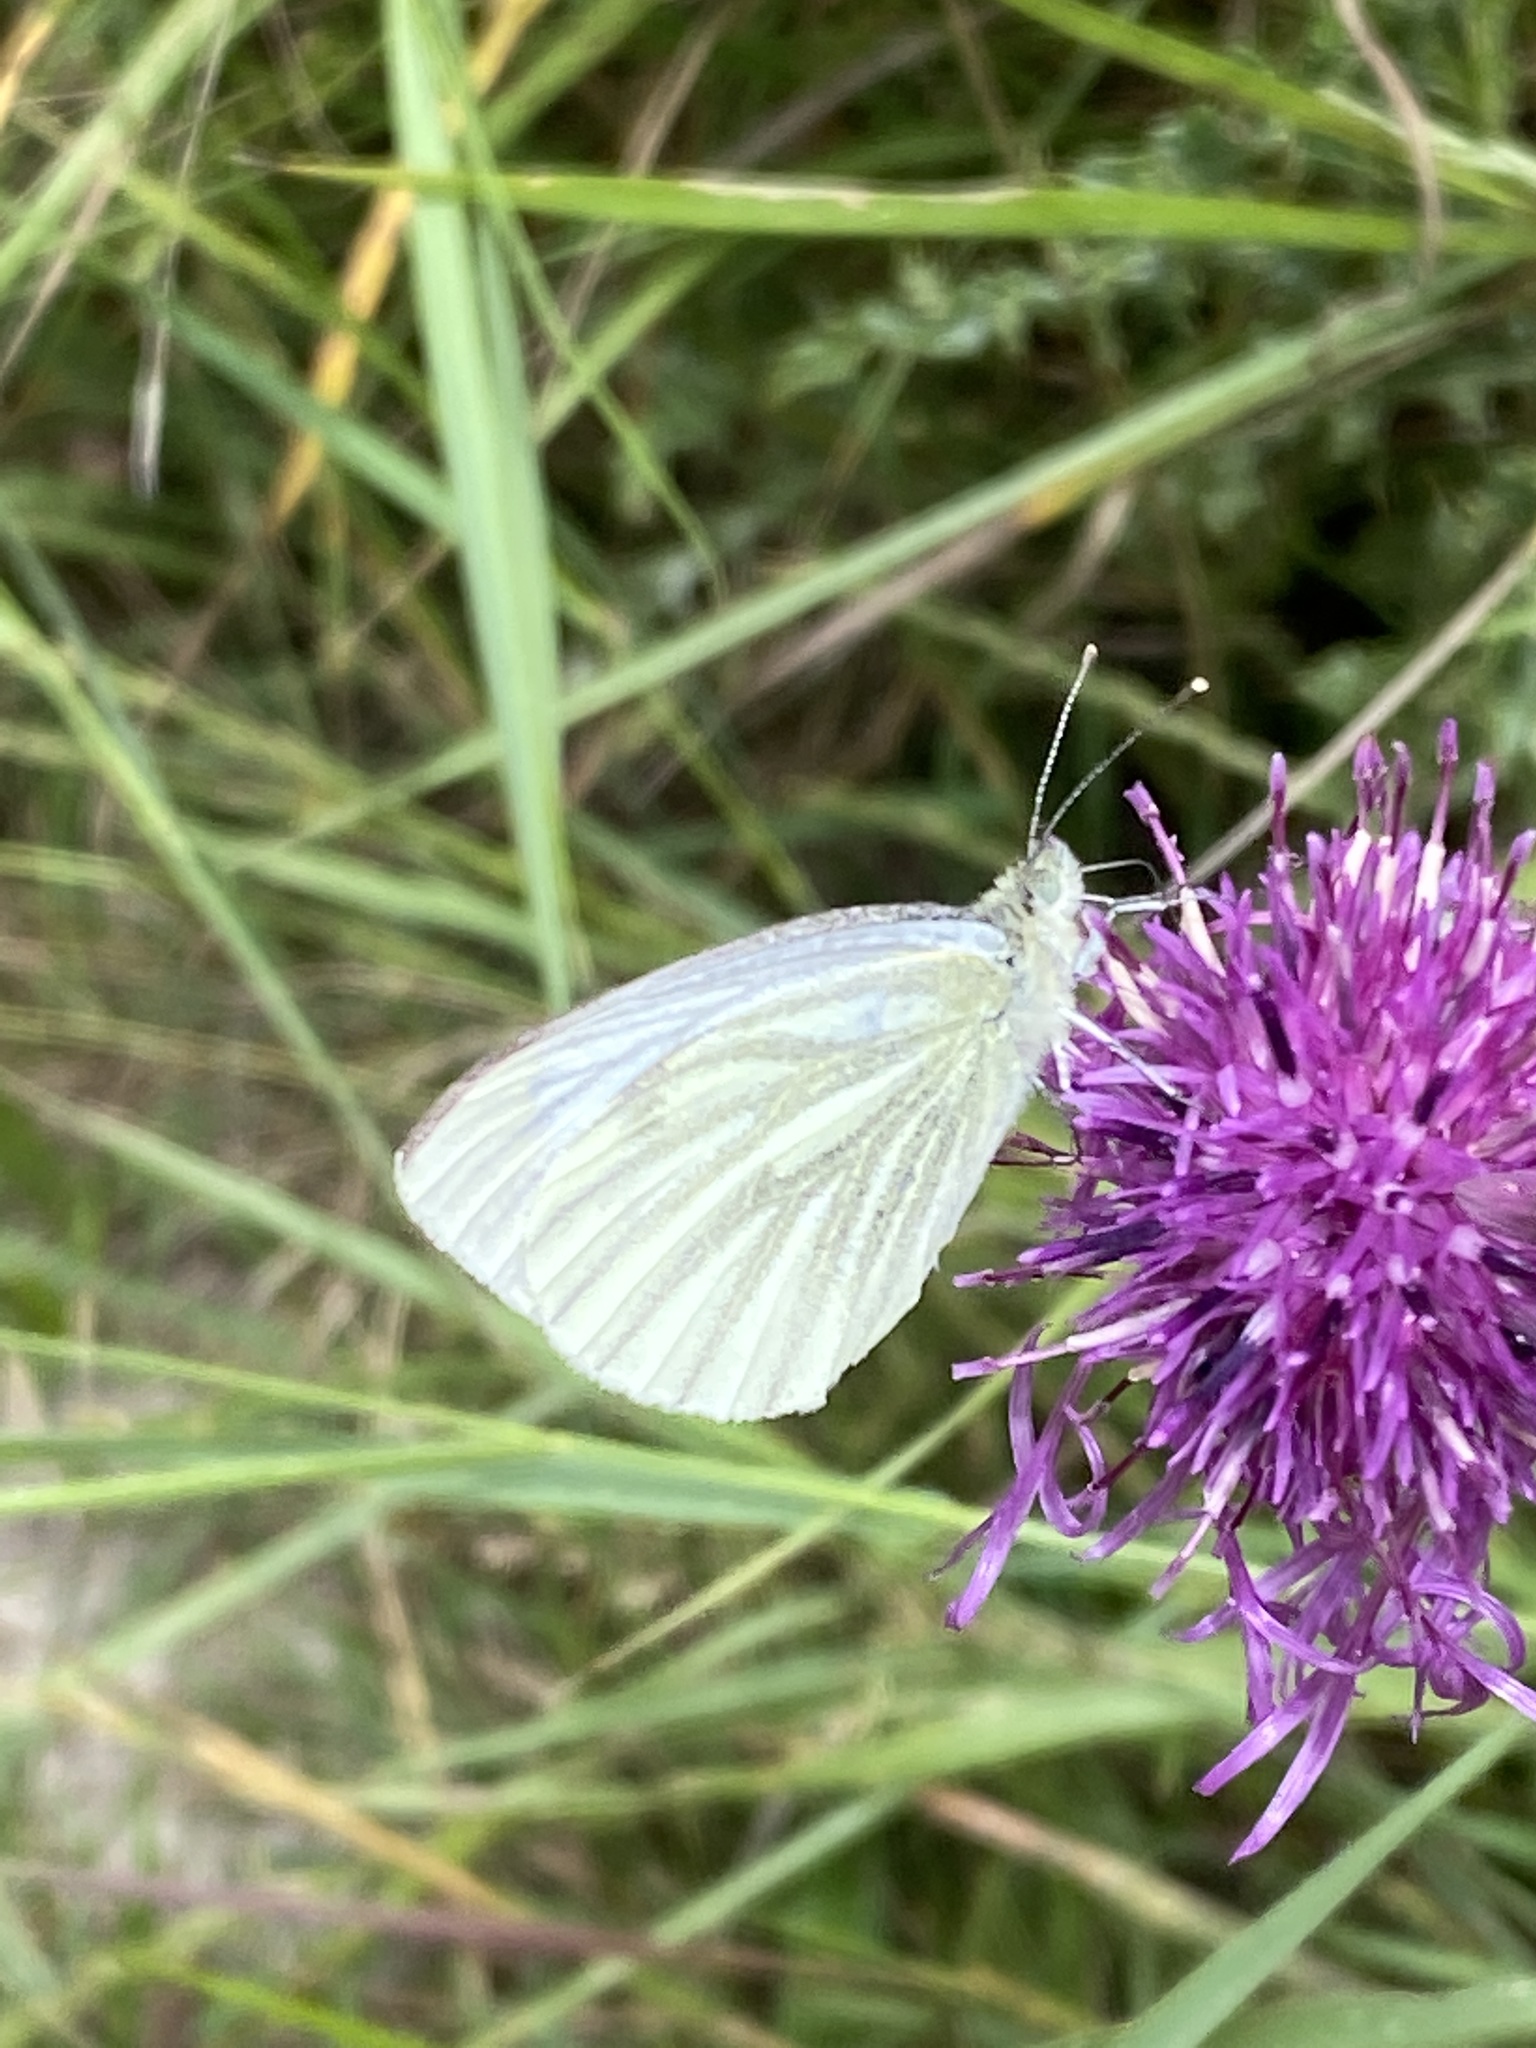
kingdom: Animalia
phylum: Arthropoda
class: Insecta
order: Lepidoptera
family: Pieridae
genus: Pieris
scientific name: Pieris napi
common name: Green-veined white
